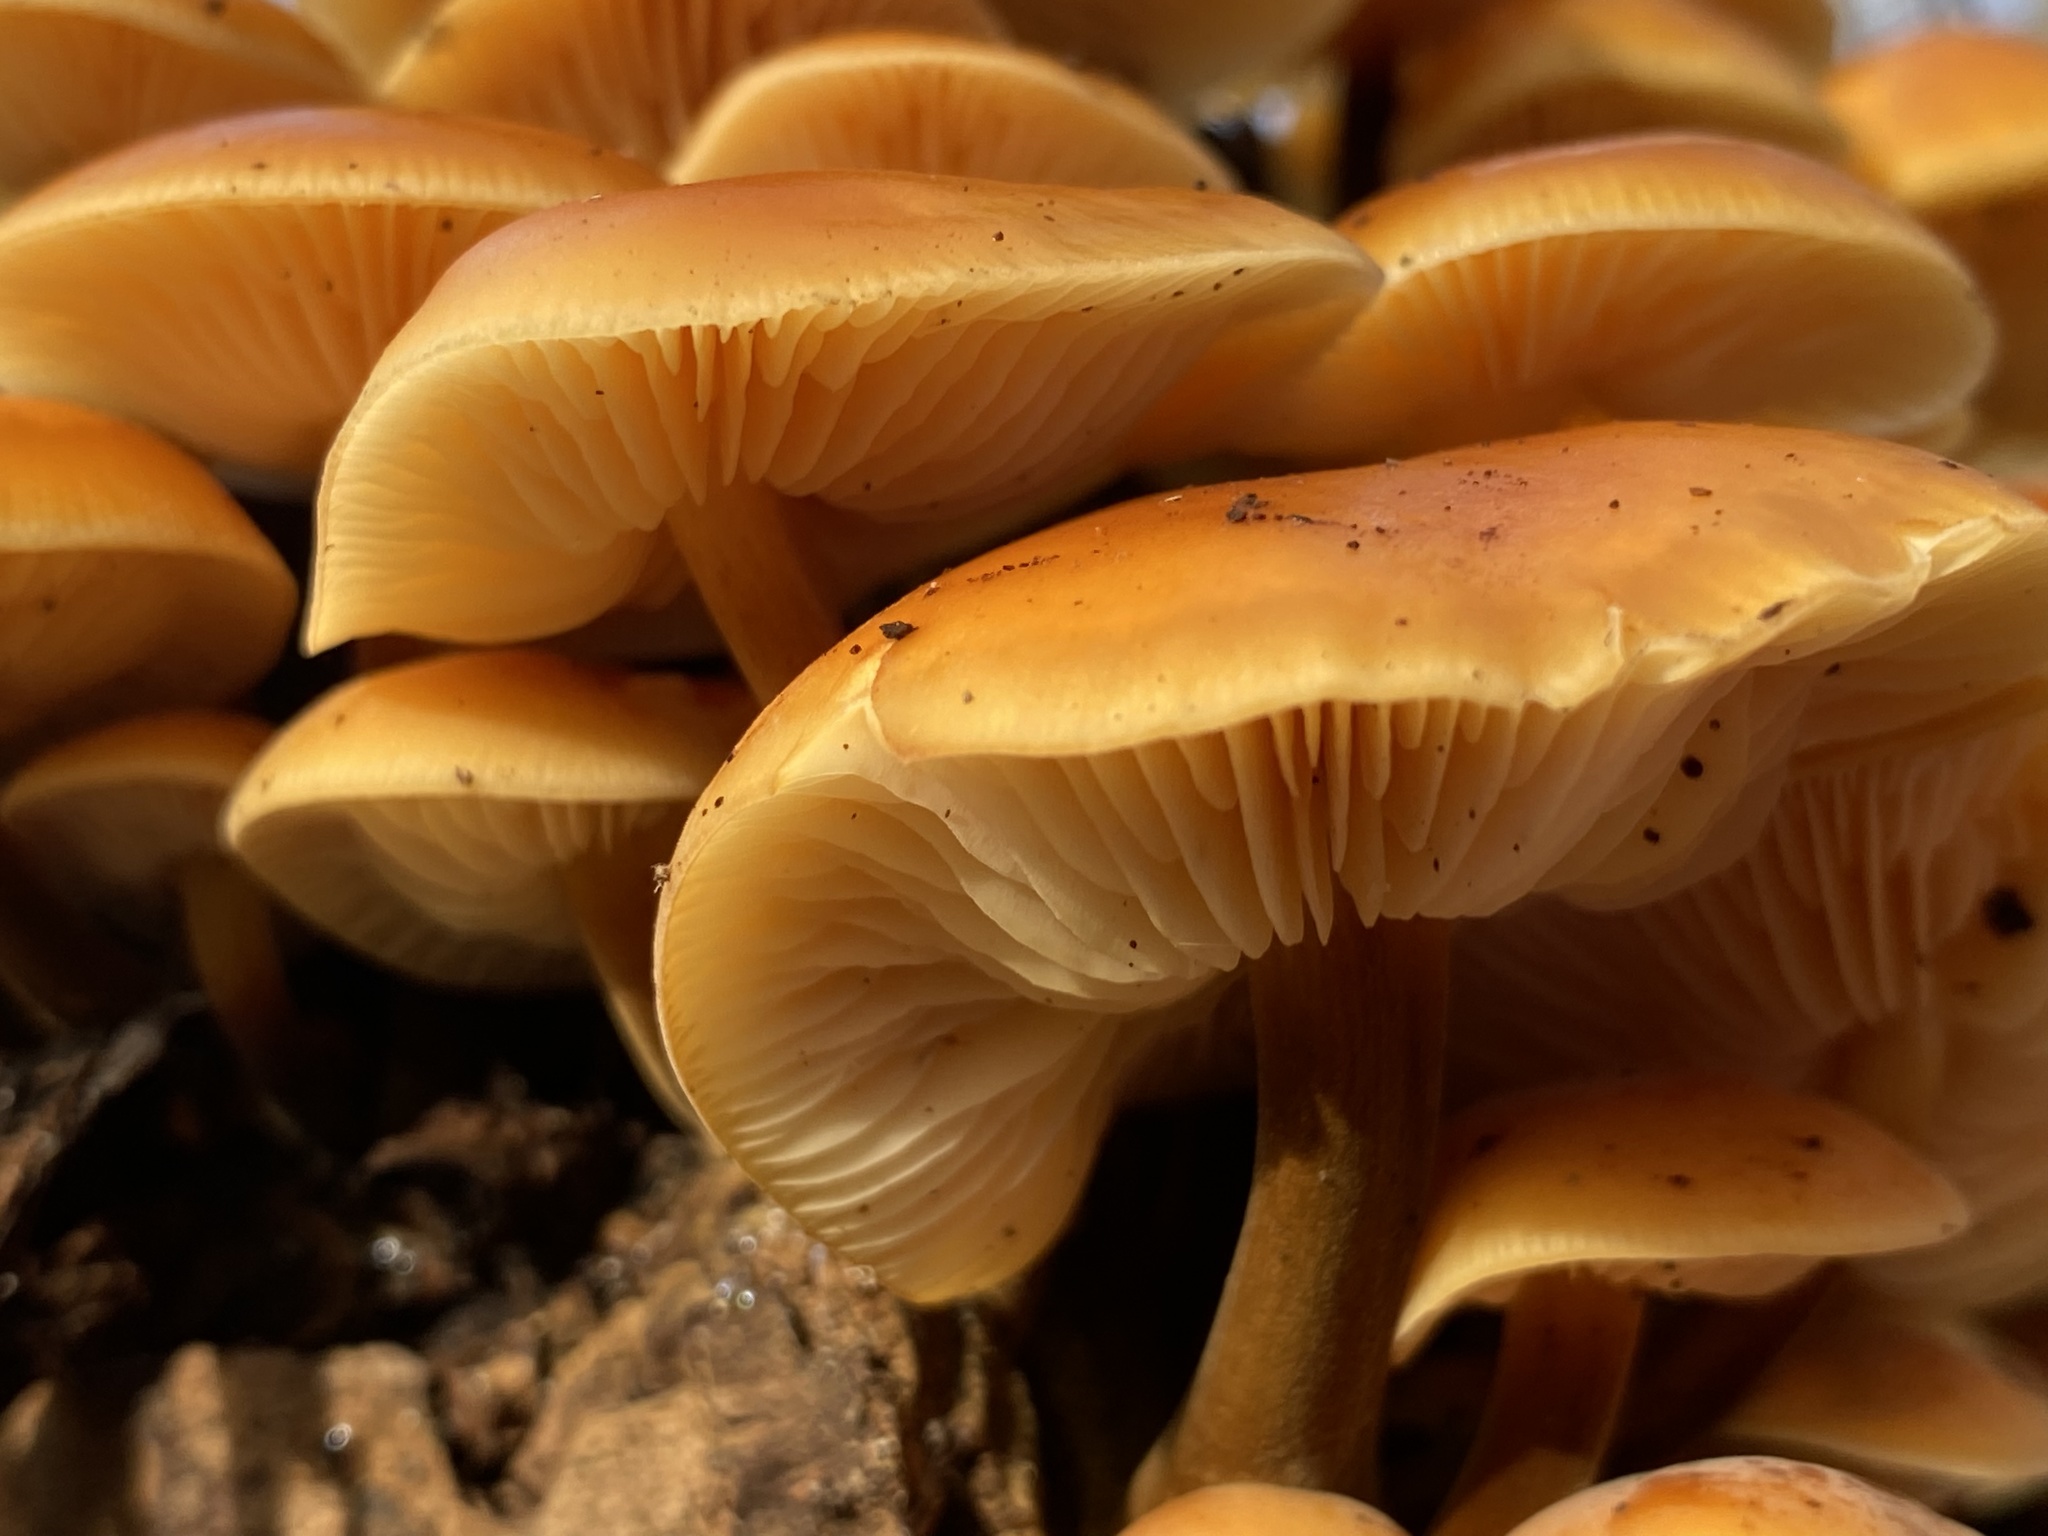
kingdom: Fungi
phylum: Basidiomycota
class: Agaricomycetes
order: Agaricales
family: Physalacriaceae
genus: Flammulina
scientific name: Flammulina
